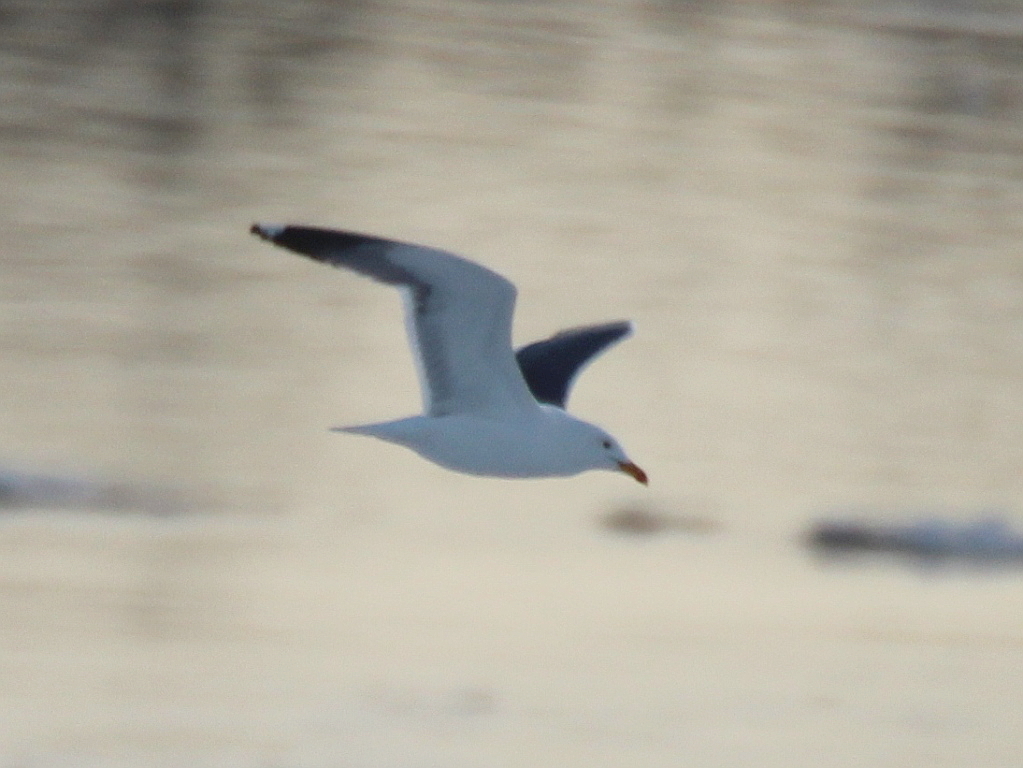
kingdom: Animalia
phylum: Chordata
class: Aves
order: Charadriiformes
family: Laridae
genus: Larus
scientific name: Larus fuscus
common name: Lesser black-backed gull
